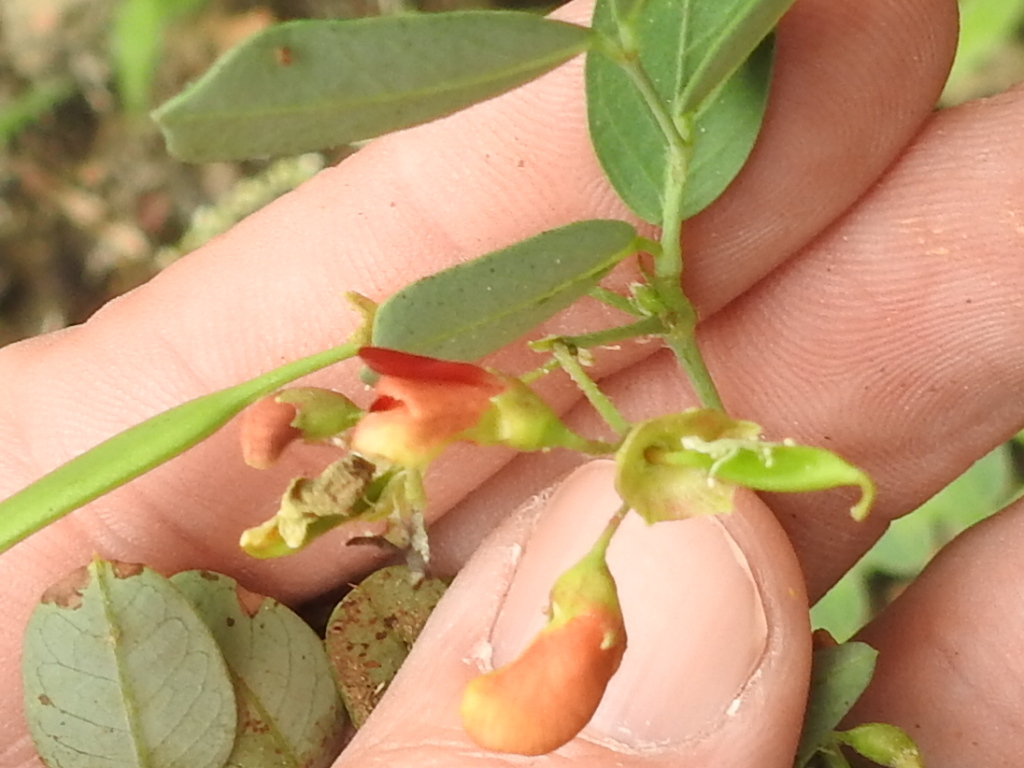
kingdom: Plantae
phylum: Tracheophyta
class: Magnoliopsida
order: Fabales
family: Fabaceae
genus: Sesbania
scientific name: Sesbania vesicaria
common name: Bagpod
